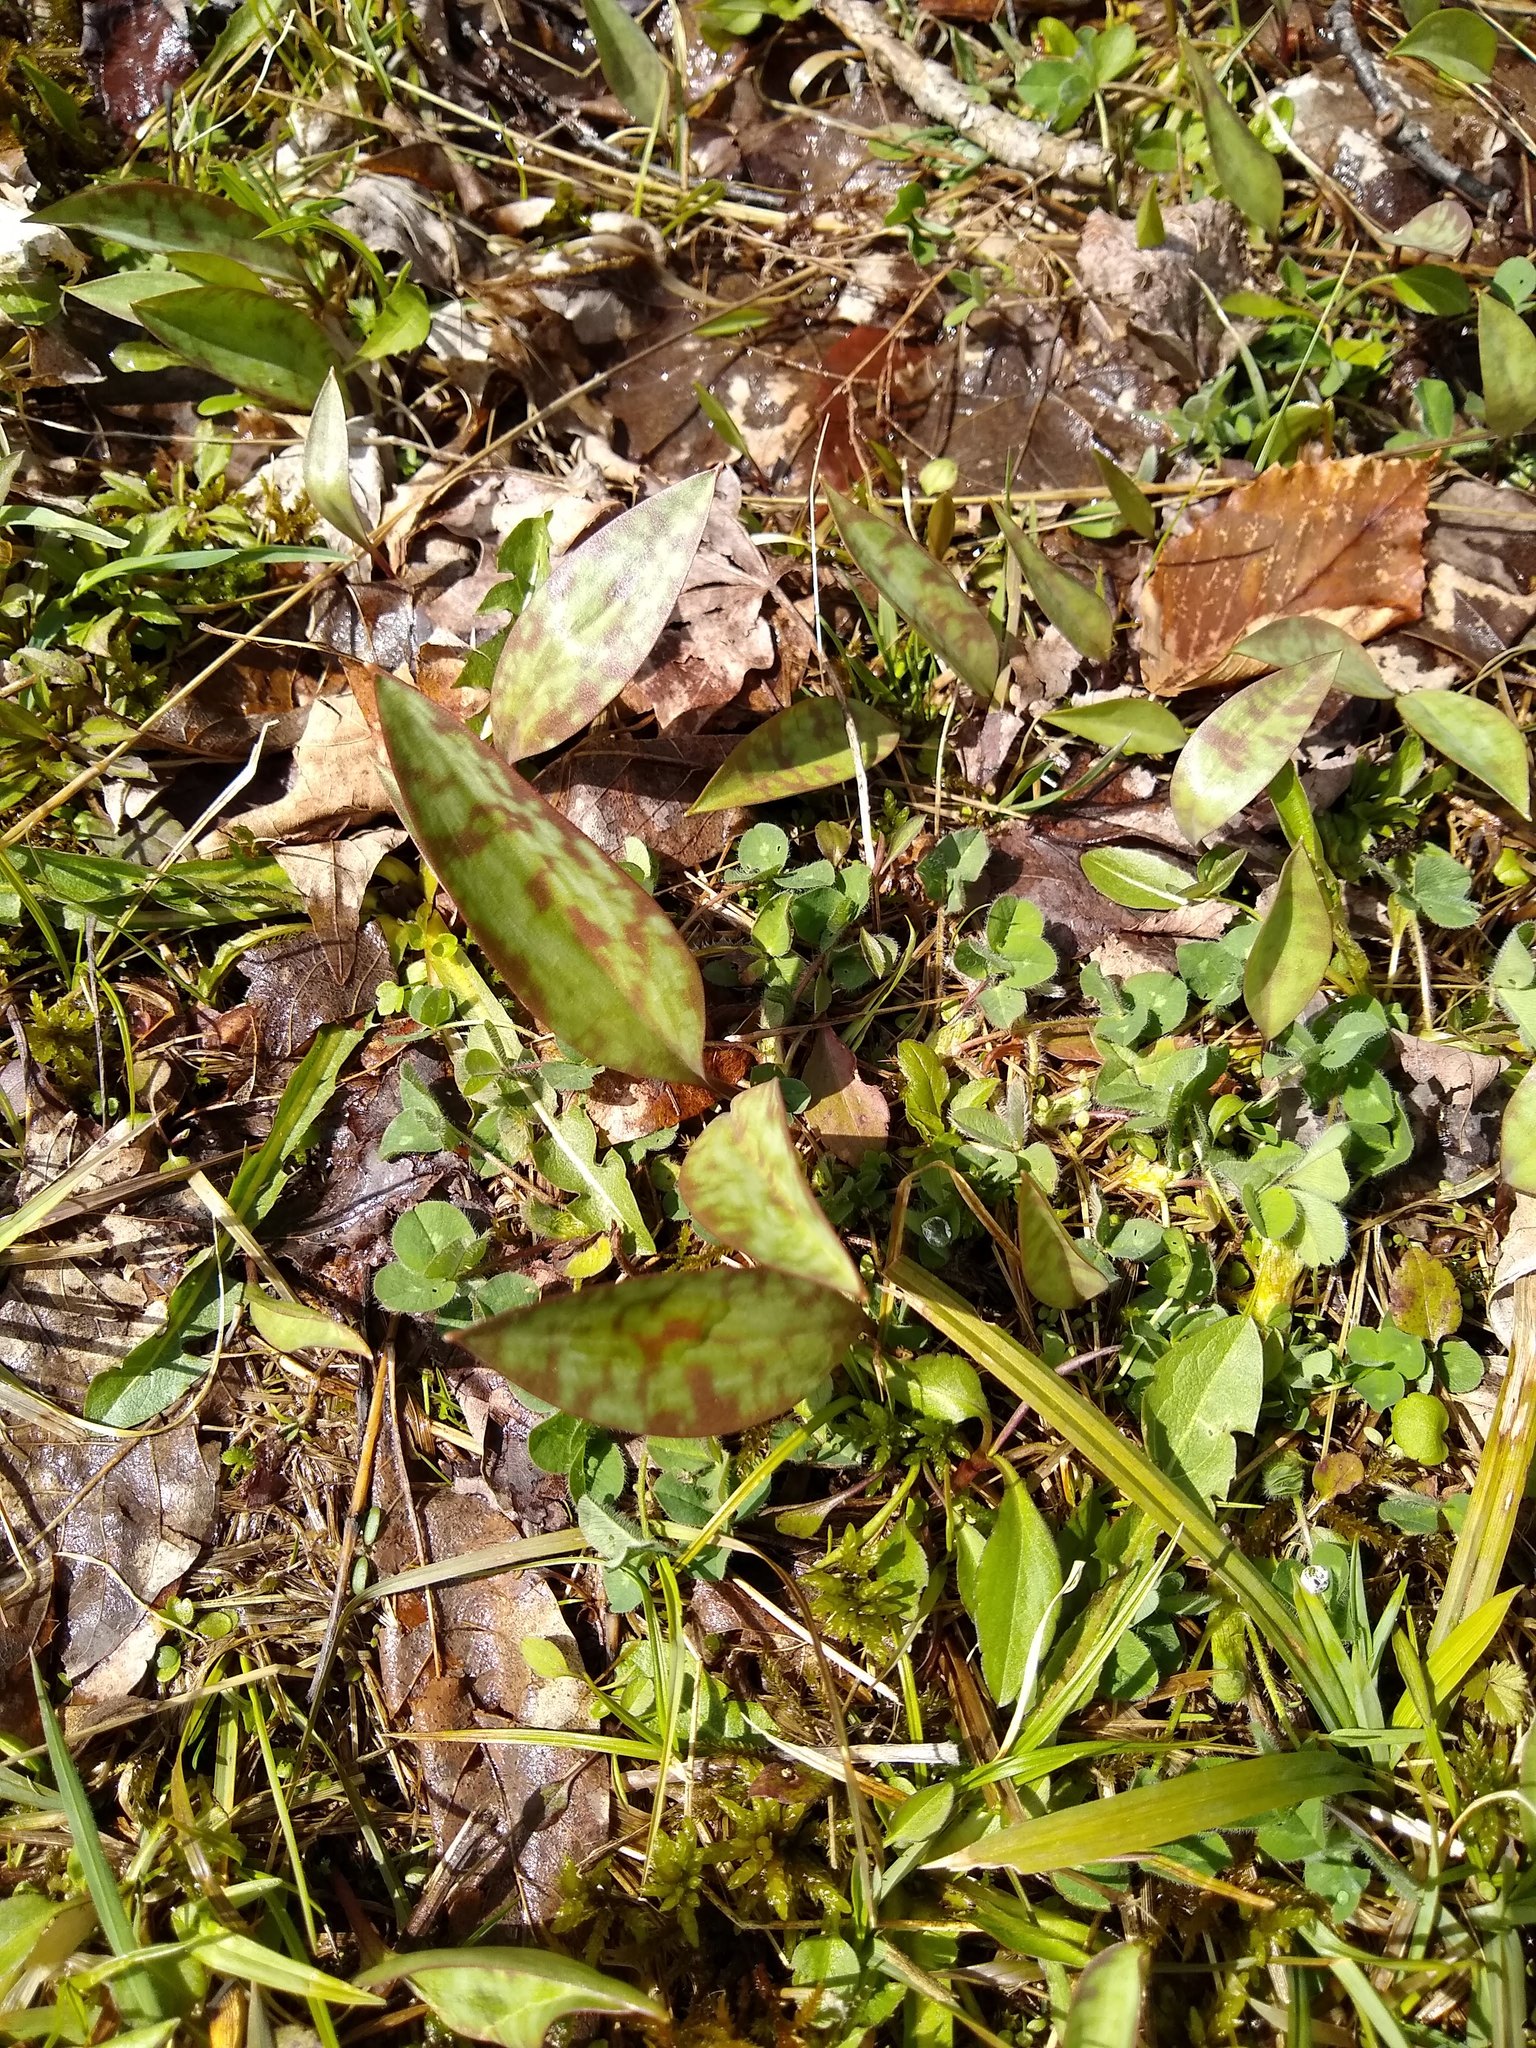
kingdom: Plantae
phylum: Tracheophyta
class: Liliopsida
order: Liliales
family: Liliaceae
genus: Erythronium
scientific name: Erythronium americanum
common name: Yellow adder's-tongue
